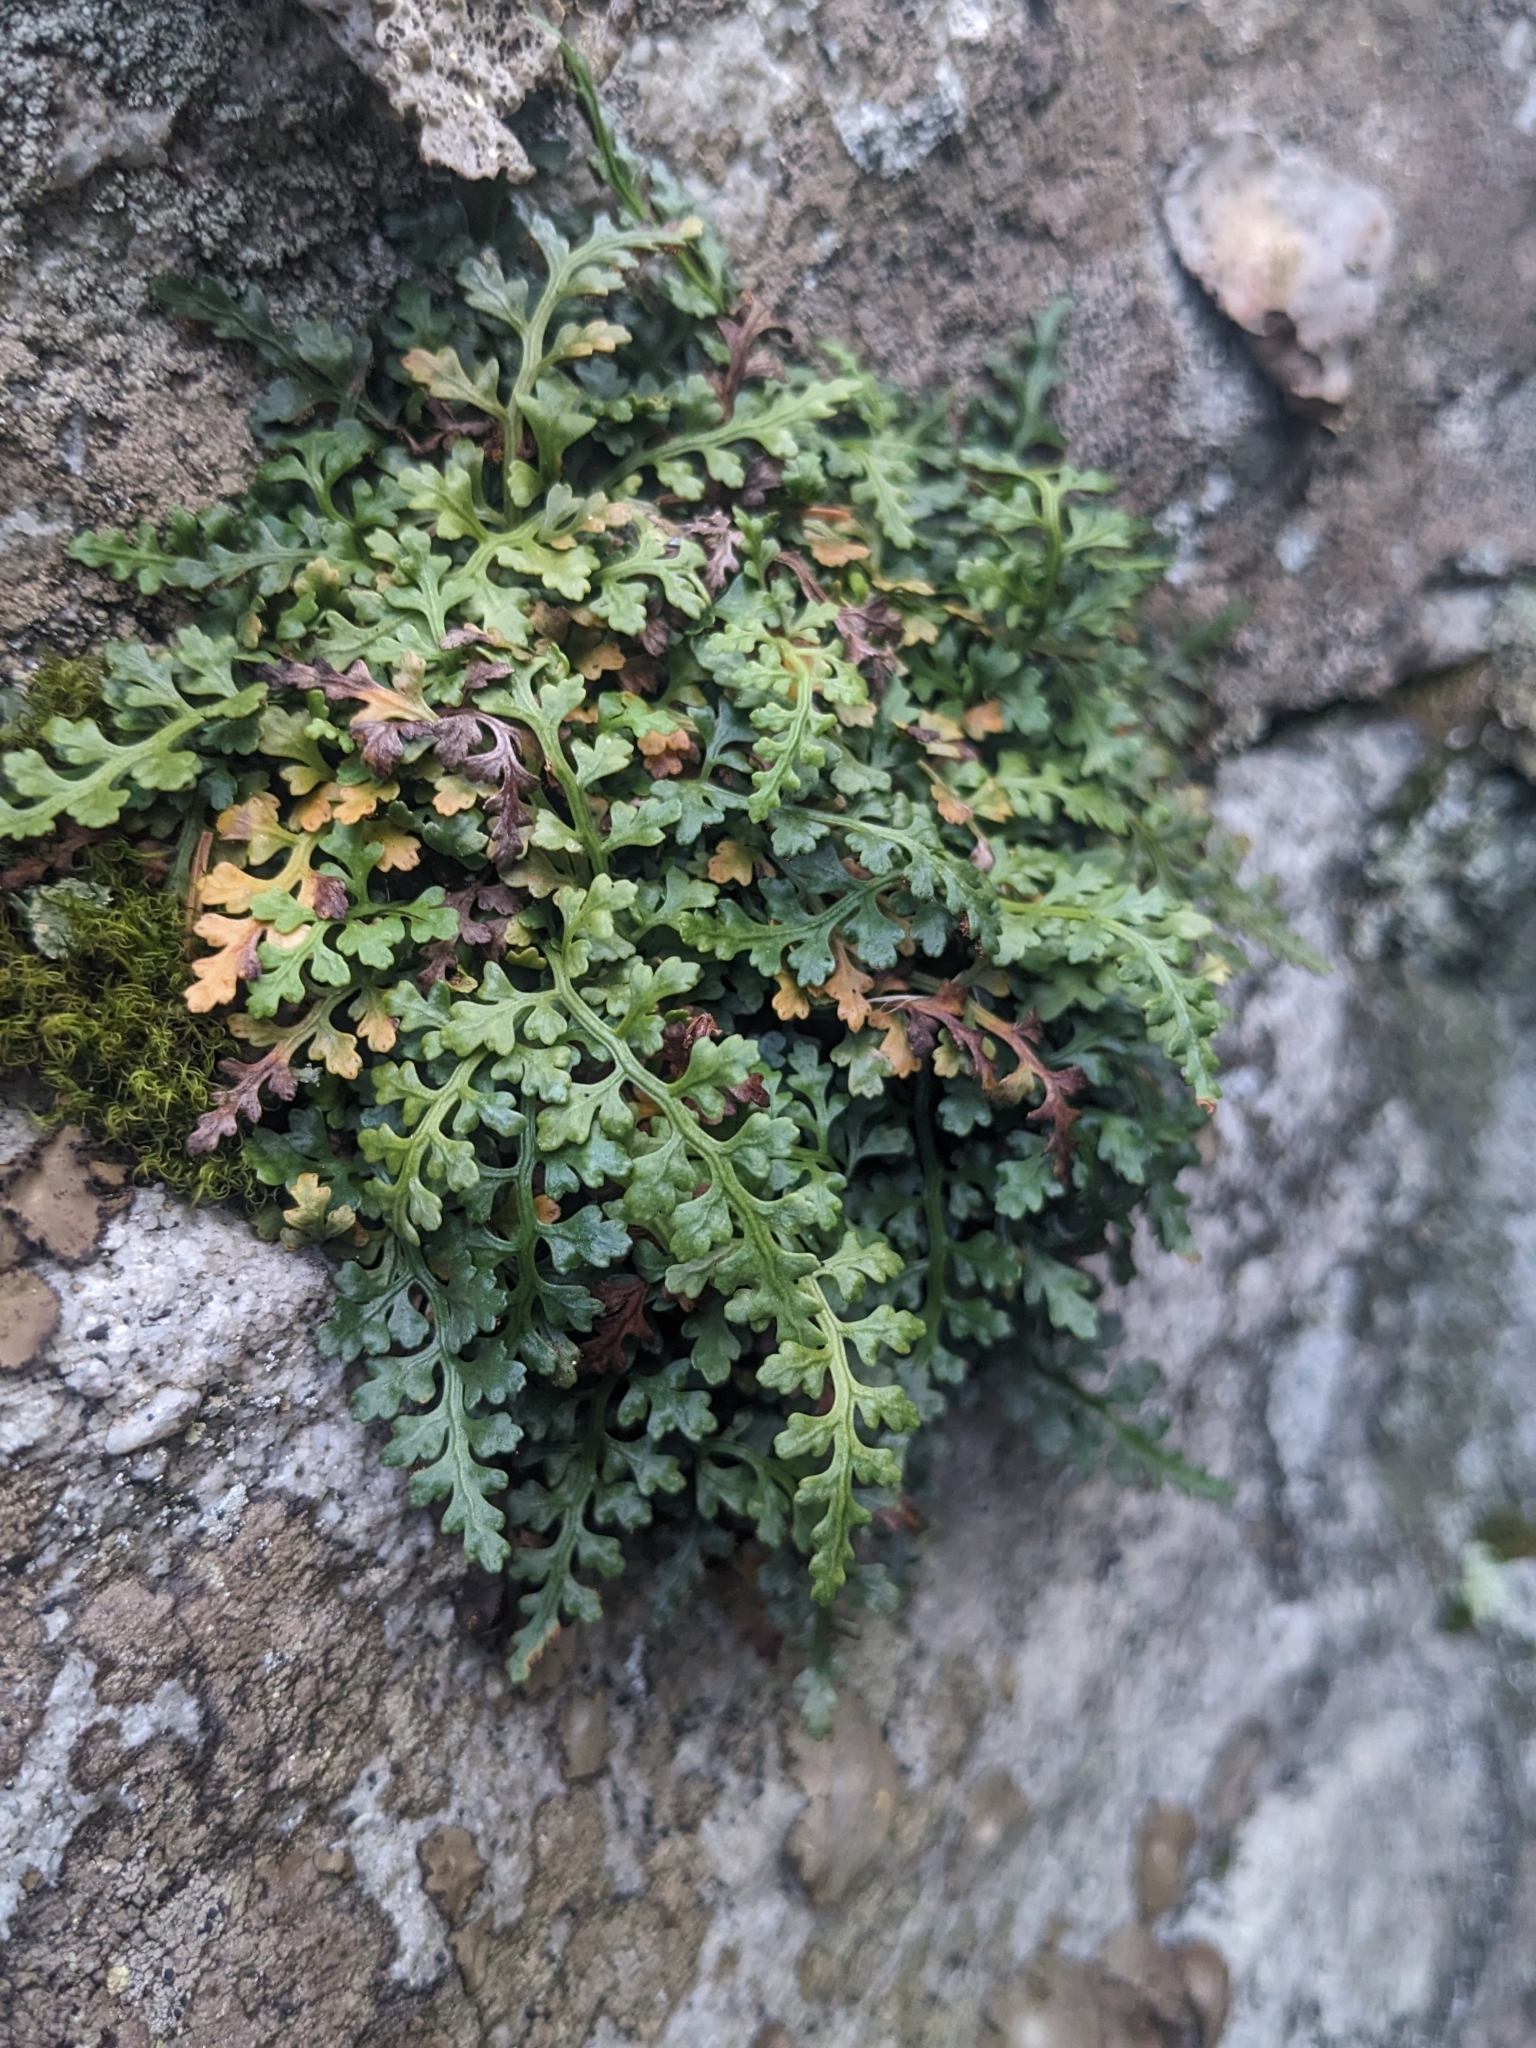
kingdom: Plantae
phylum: Tracheophyta
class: Polypodiopsida
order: Polypodiales
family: Aspleniaceae
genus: Asplenium
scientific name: Asplenium montanum
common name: Mountain spleenwort
